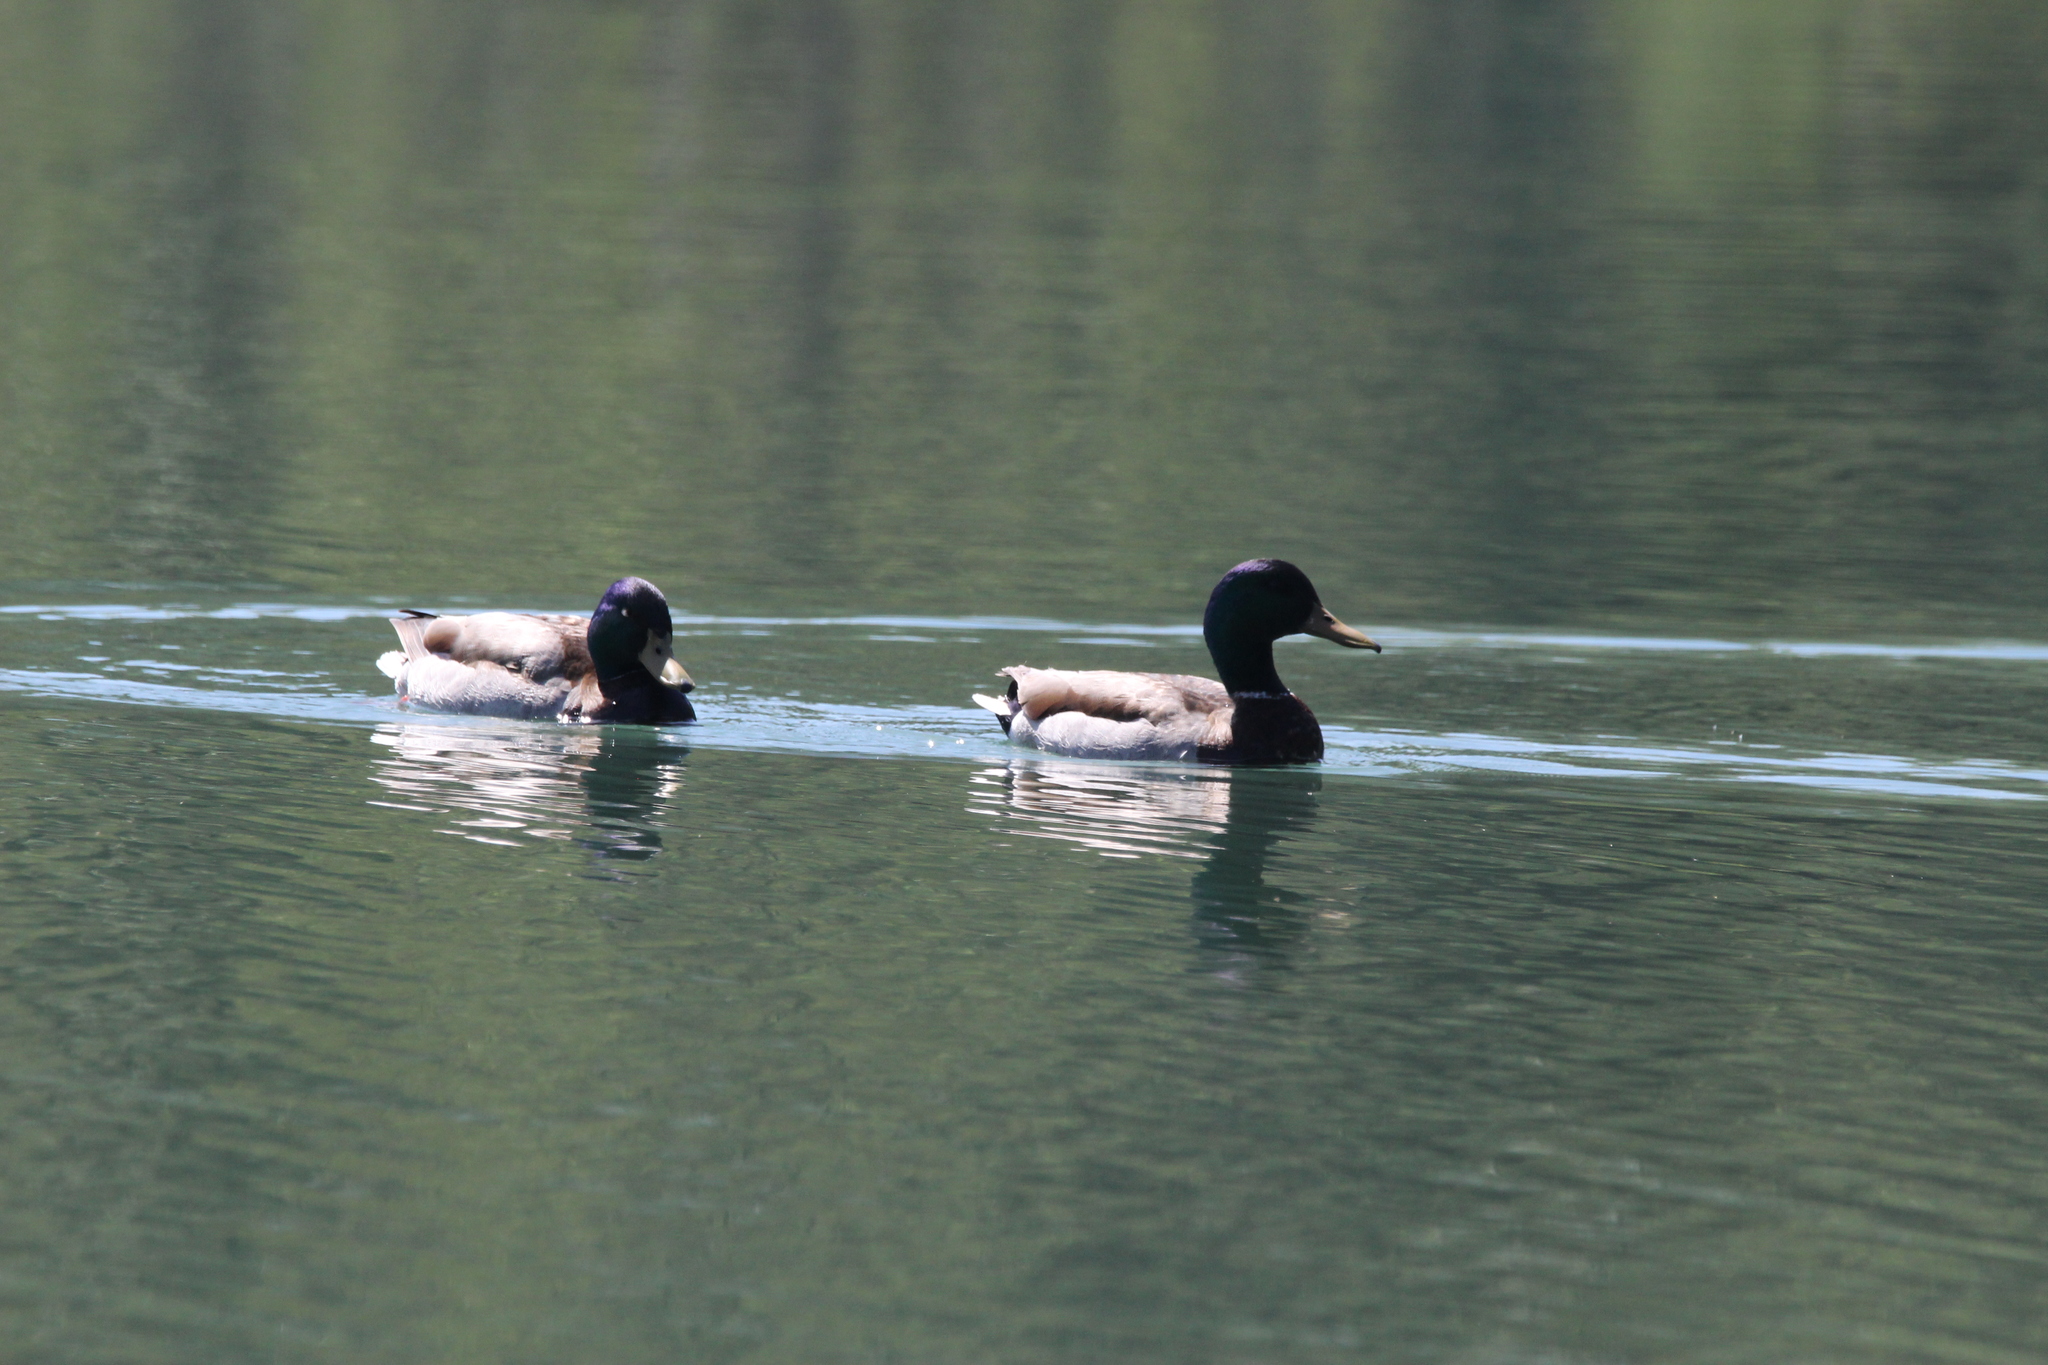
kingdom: Animalia
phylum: Chordata
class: Aves
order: Anseriformes
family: Anatidae
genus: Anas
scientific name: Anas platyrhynchos
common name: Mallard
